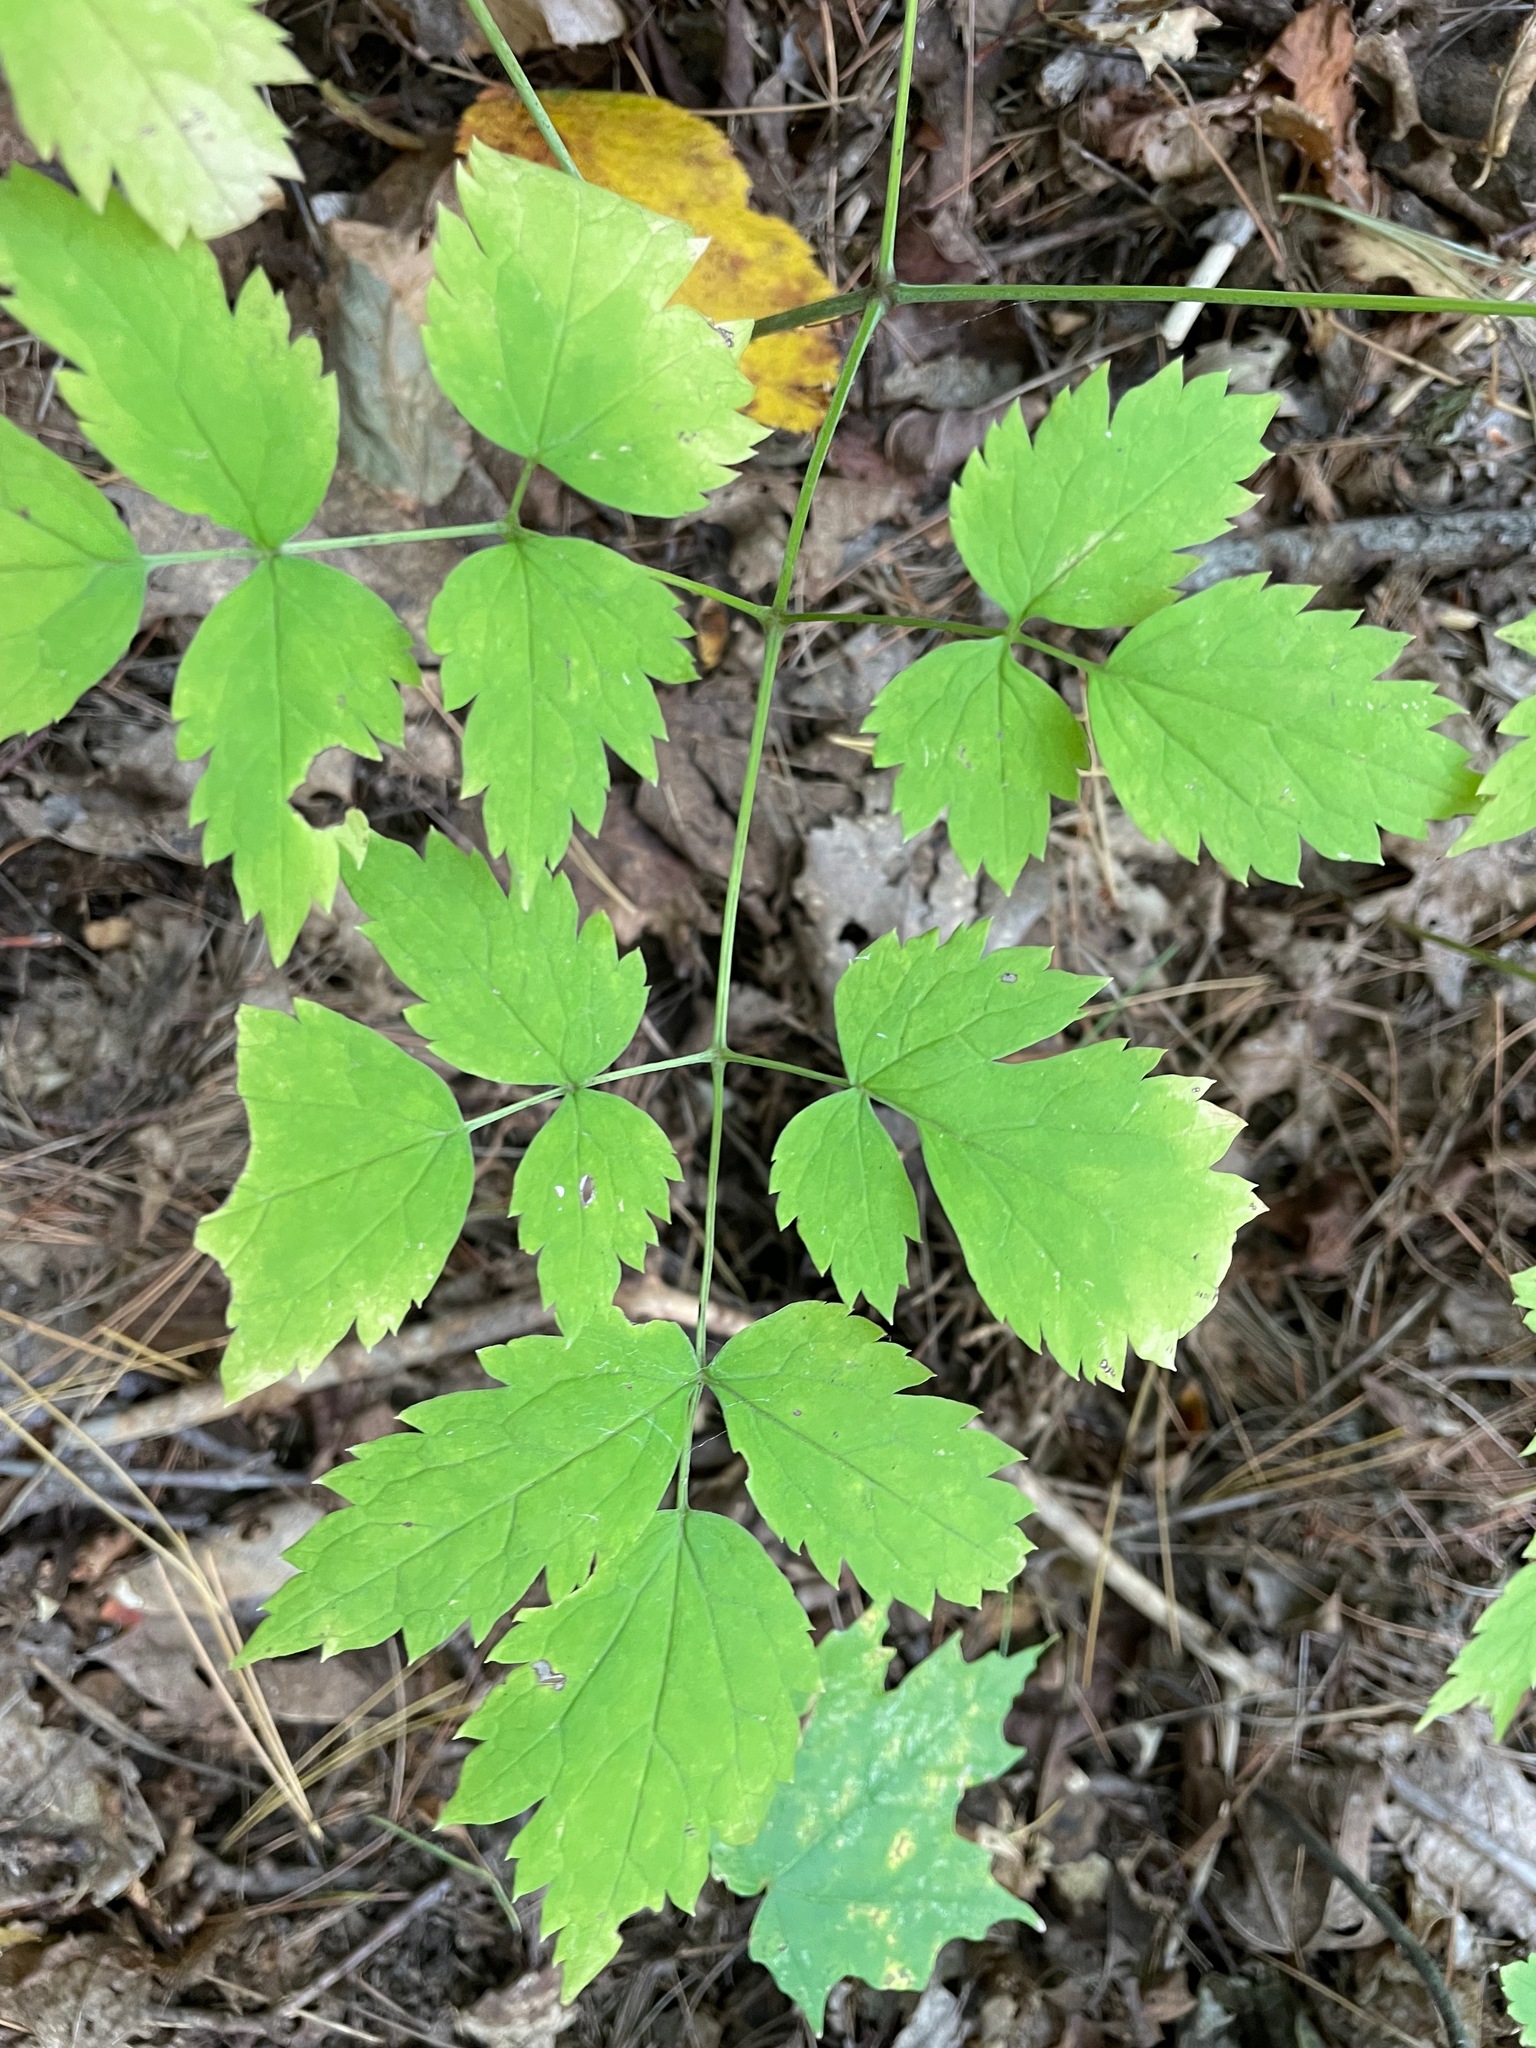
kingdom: Plantae
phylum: Tracheophyta
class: Magnoliopsida
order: Ranunculales
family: Ranunculaceae
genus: Actaea
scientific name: Actaea pachypoda
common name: Doll's-eyes
